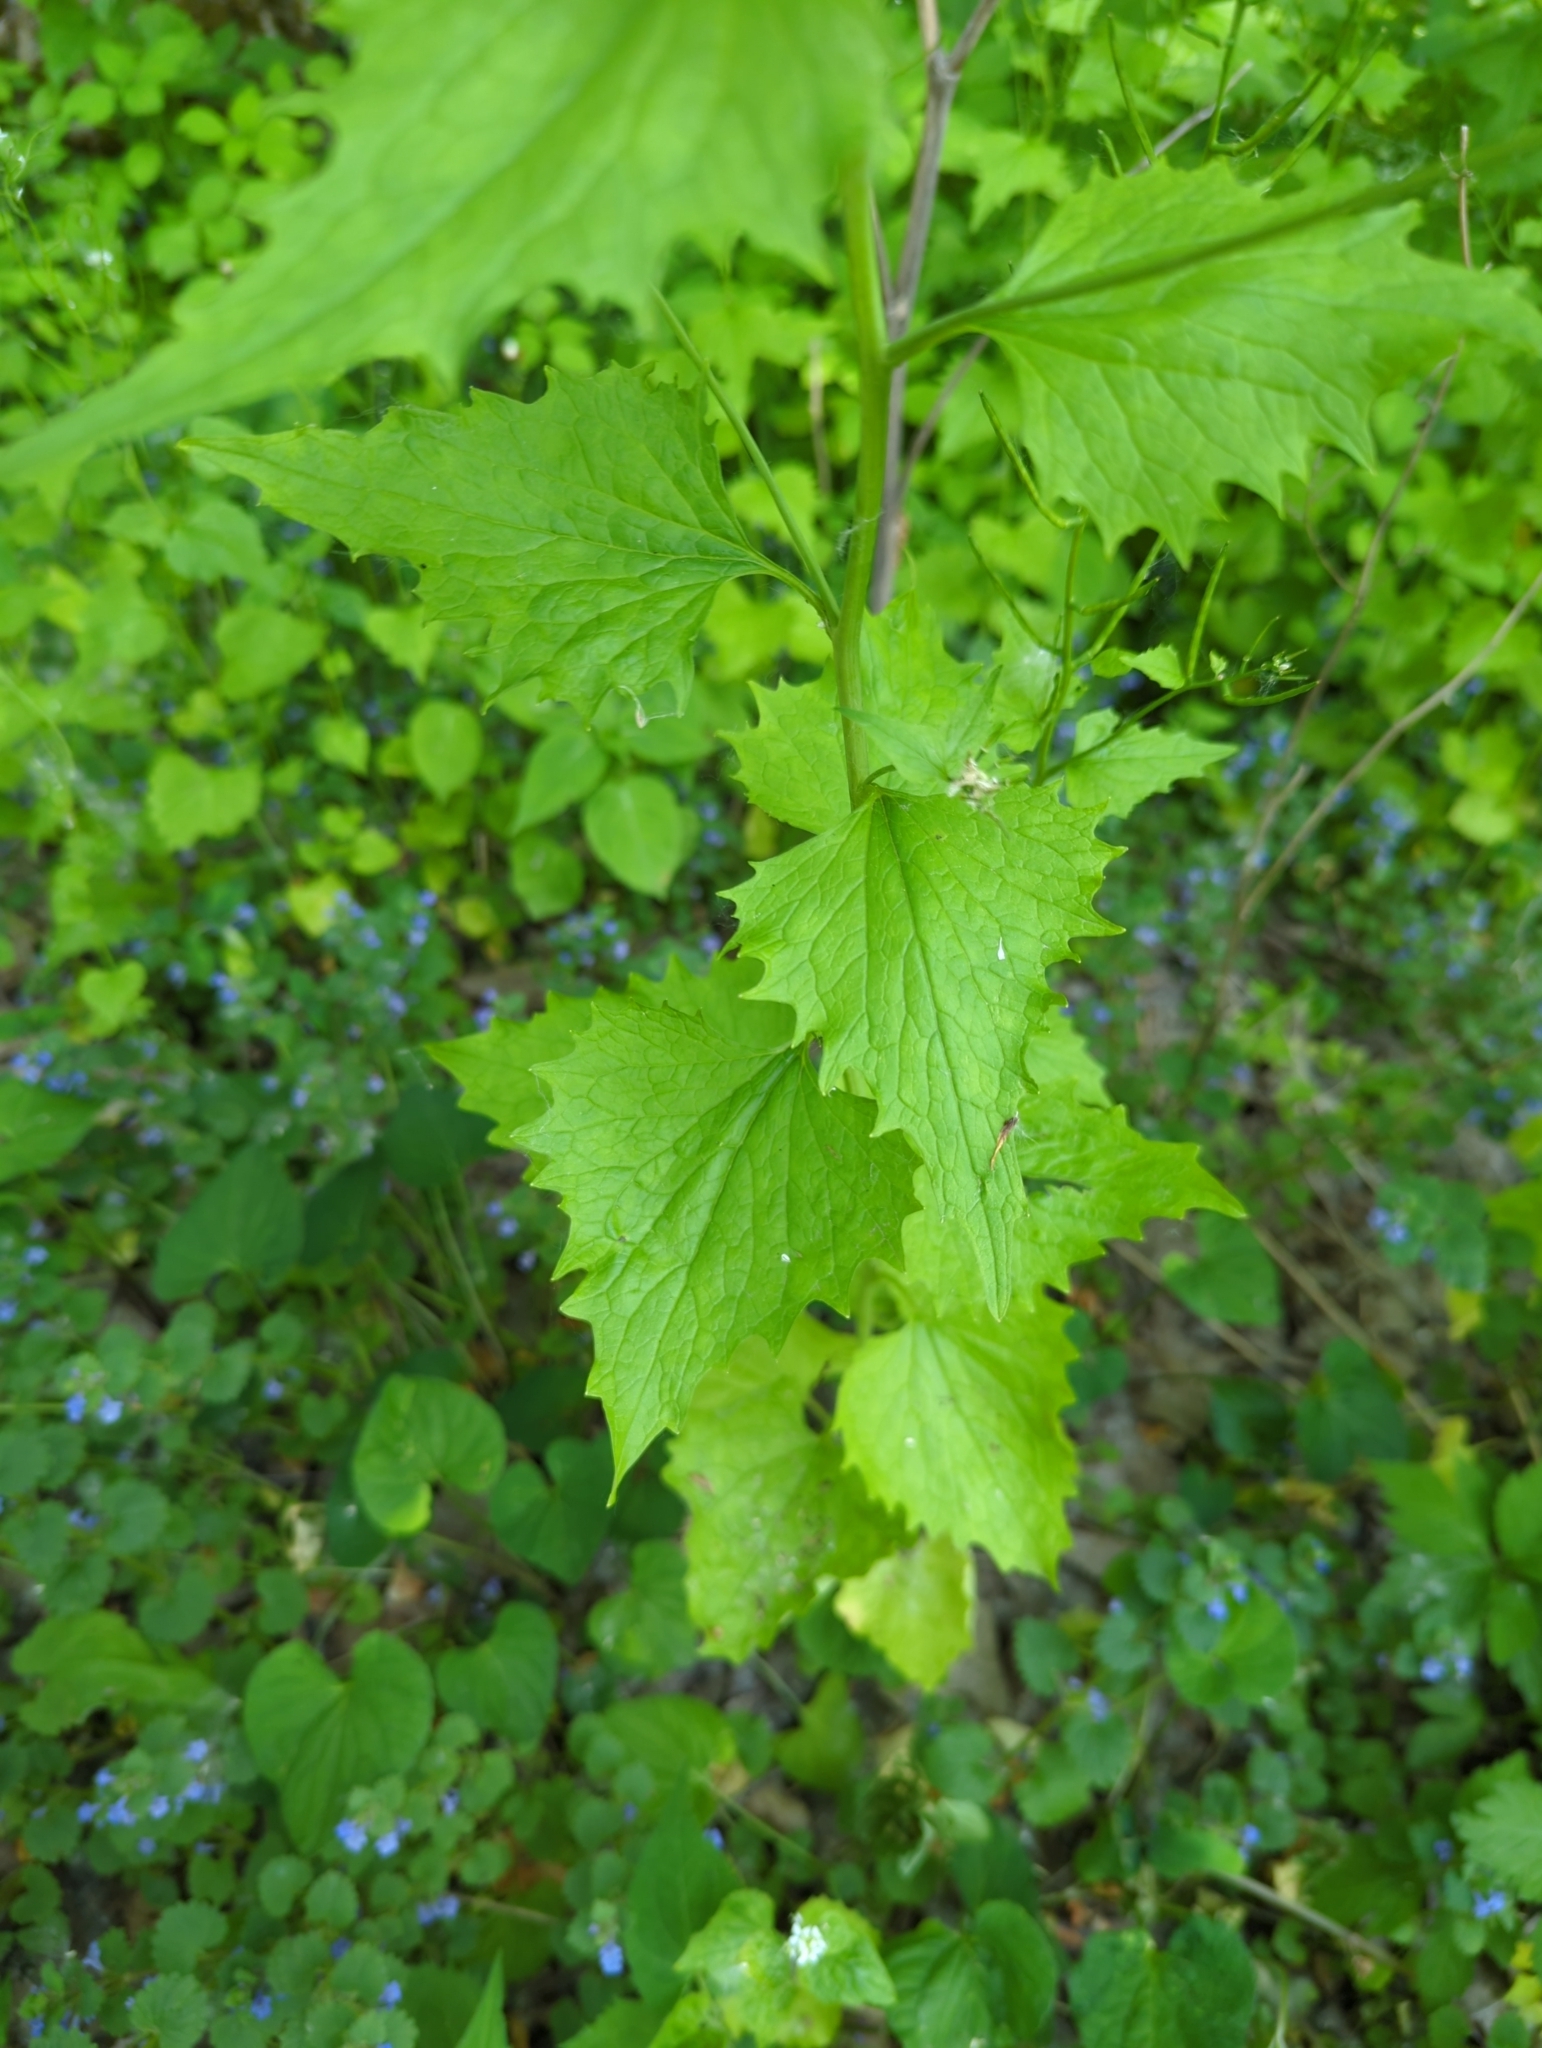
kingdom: Plantae
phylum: Tracheophyta
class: Magnoliopsida
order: Brassicales
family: Brassicaceae
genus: Alliaria
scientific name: Alliaria petiolata
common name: Garlic mustard
